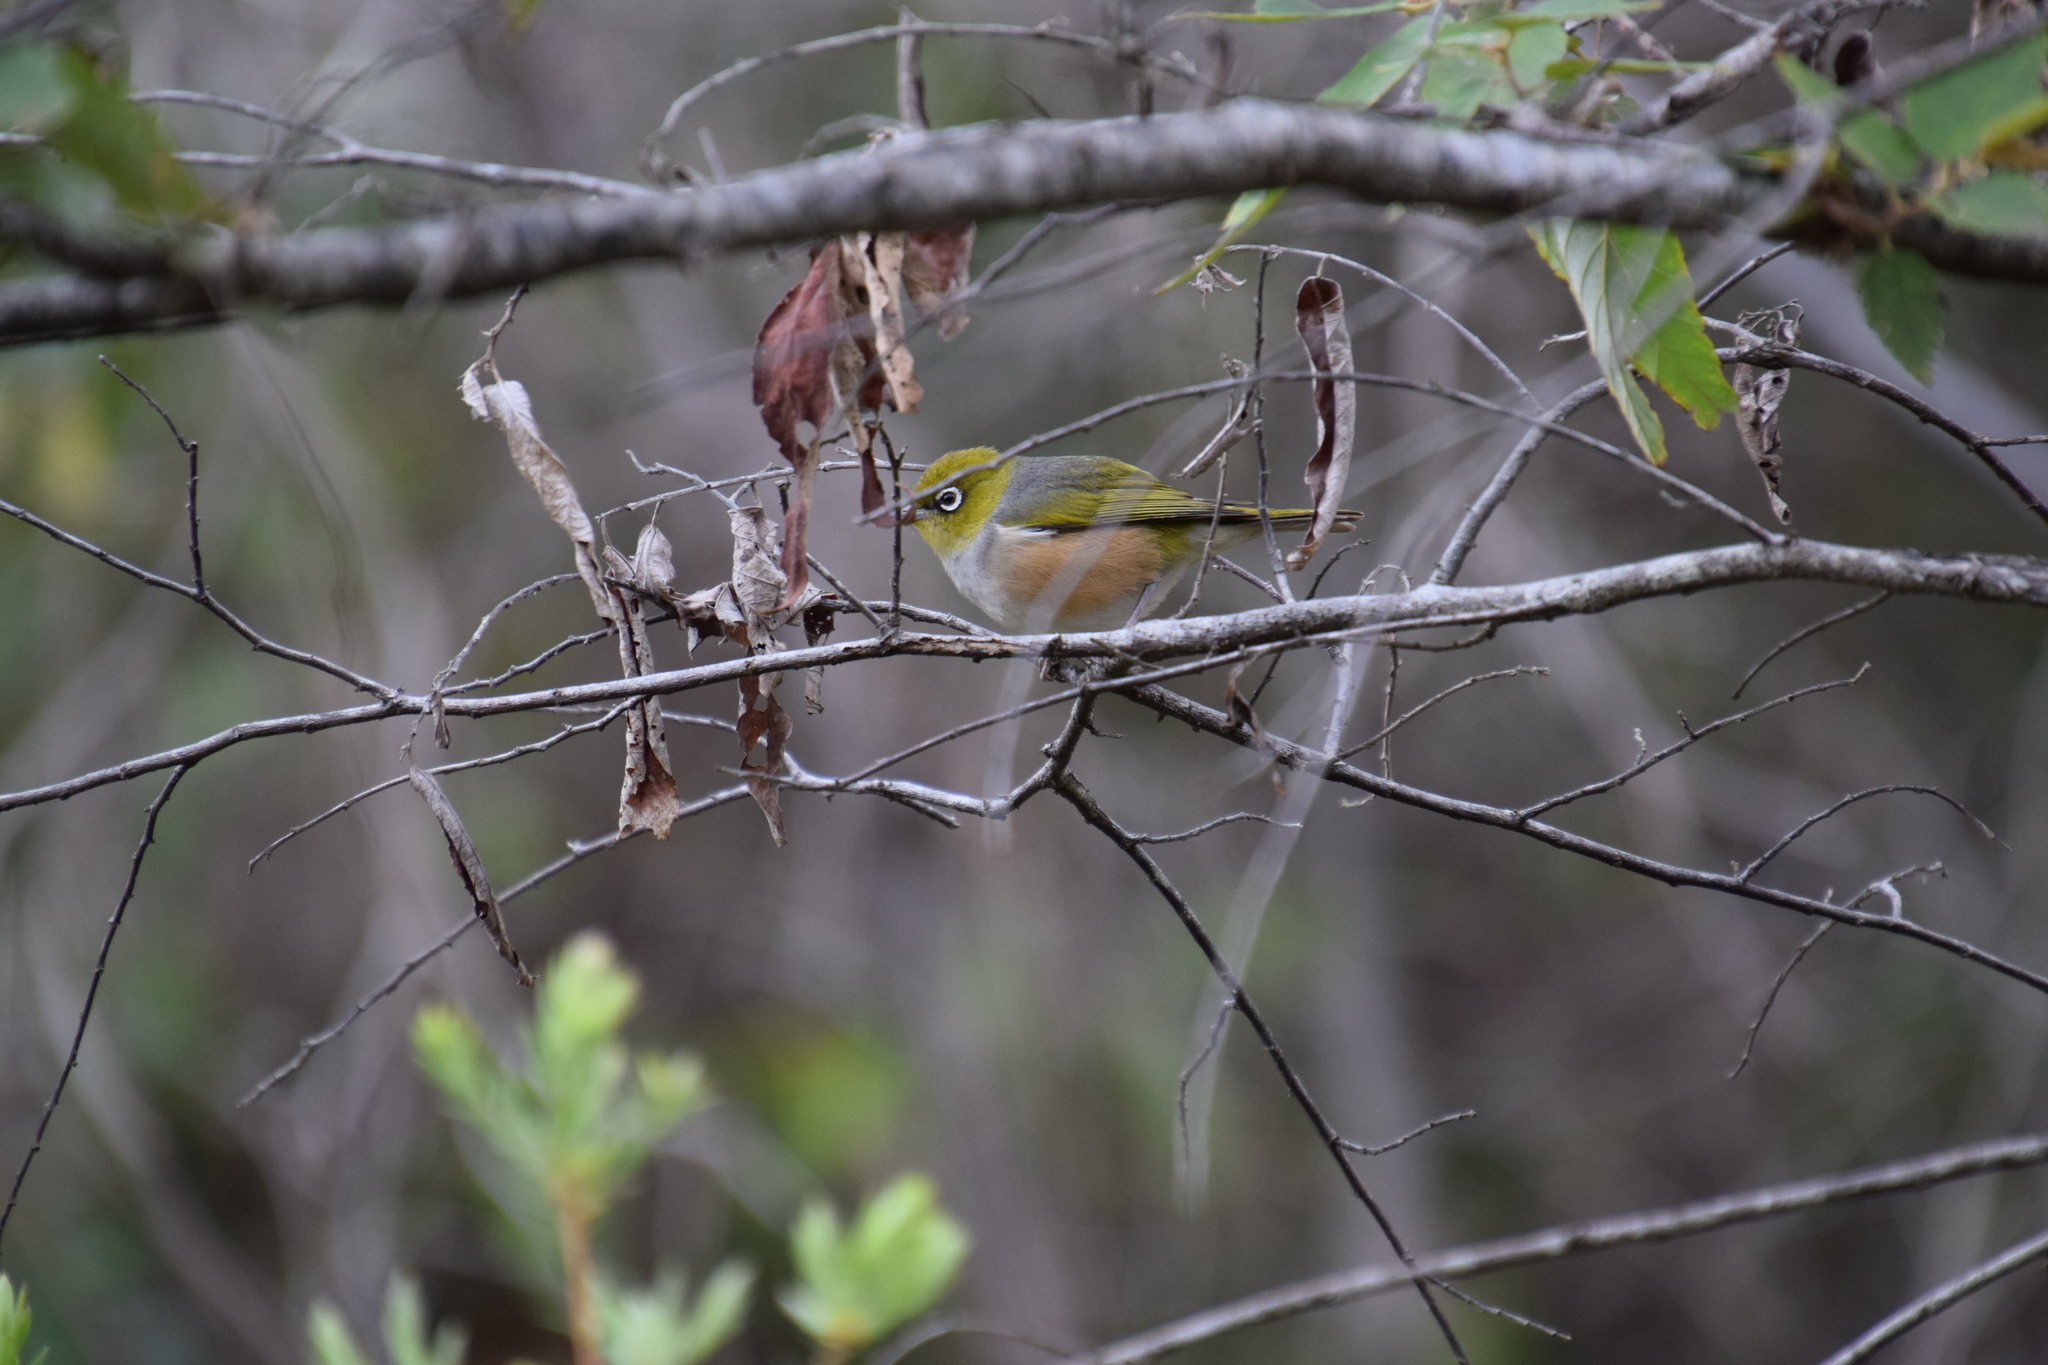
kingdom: Animalia
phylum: Chordata
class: Aves
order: Passeriformes
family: Zosteropidae
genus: Zosterops
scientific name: Zosterops lateralis
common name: Silvereye
